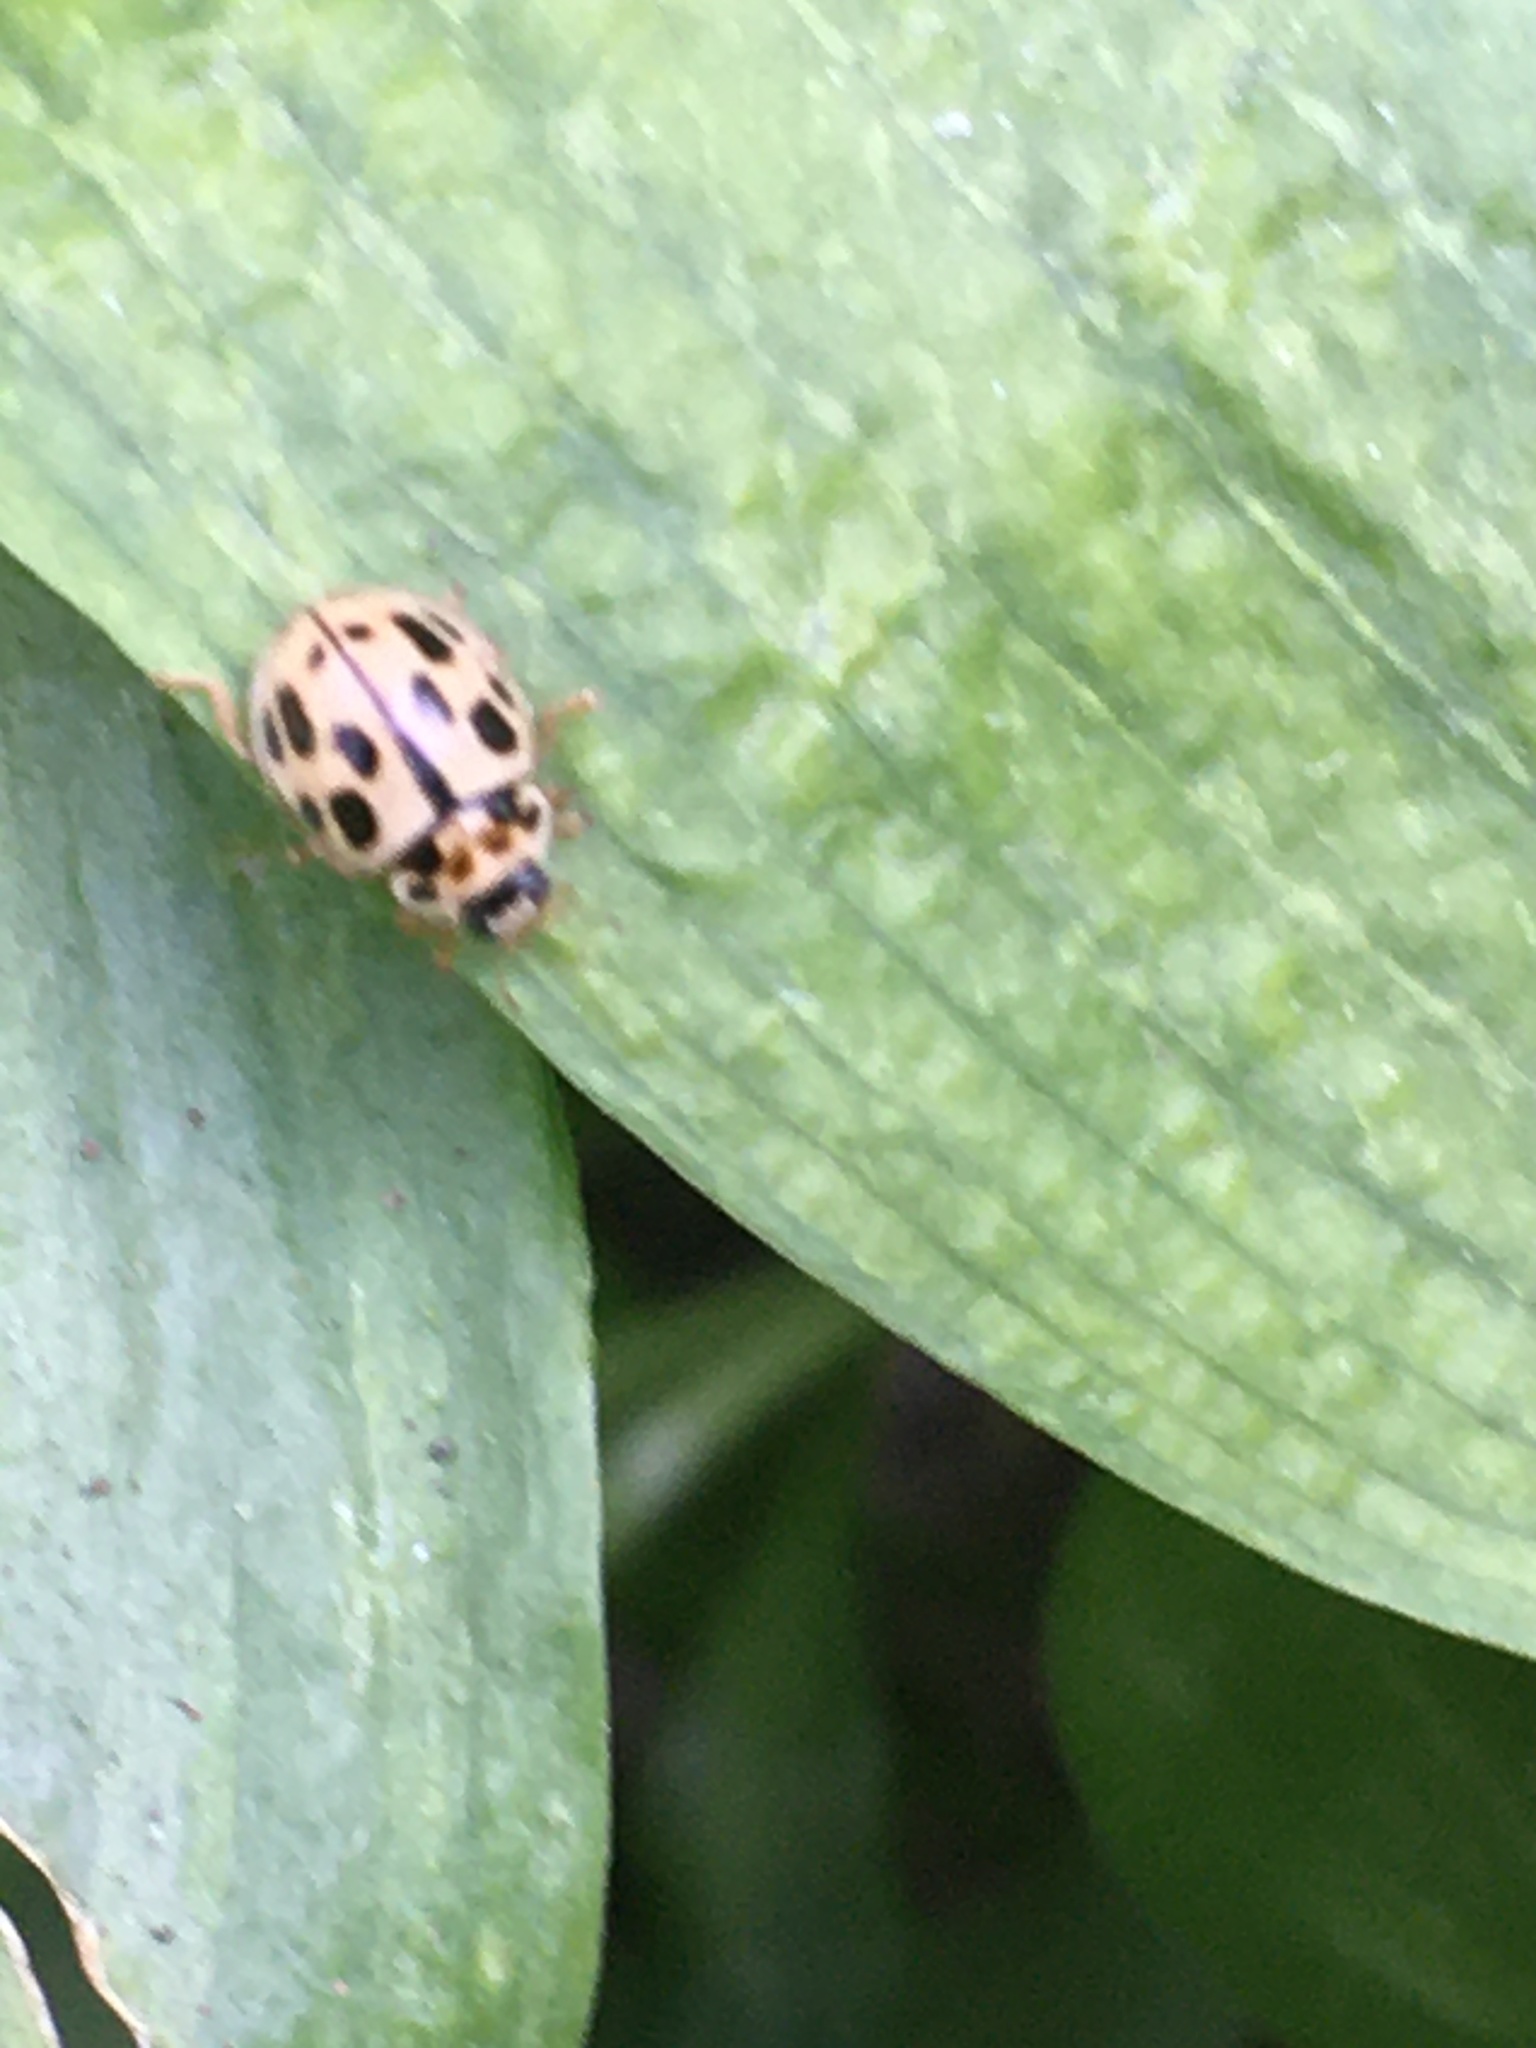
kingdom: Animalia
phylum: Arthropoda
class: Insecta
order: Coleoptera
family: Coccinellidae
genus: Propylaea
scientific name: Propylaea quatuordecimpunctata
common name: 14-spotted ladybird beetle
